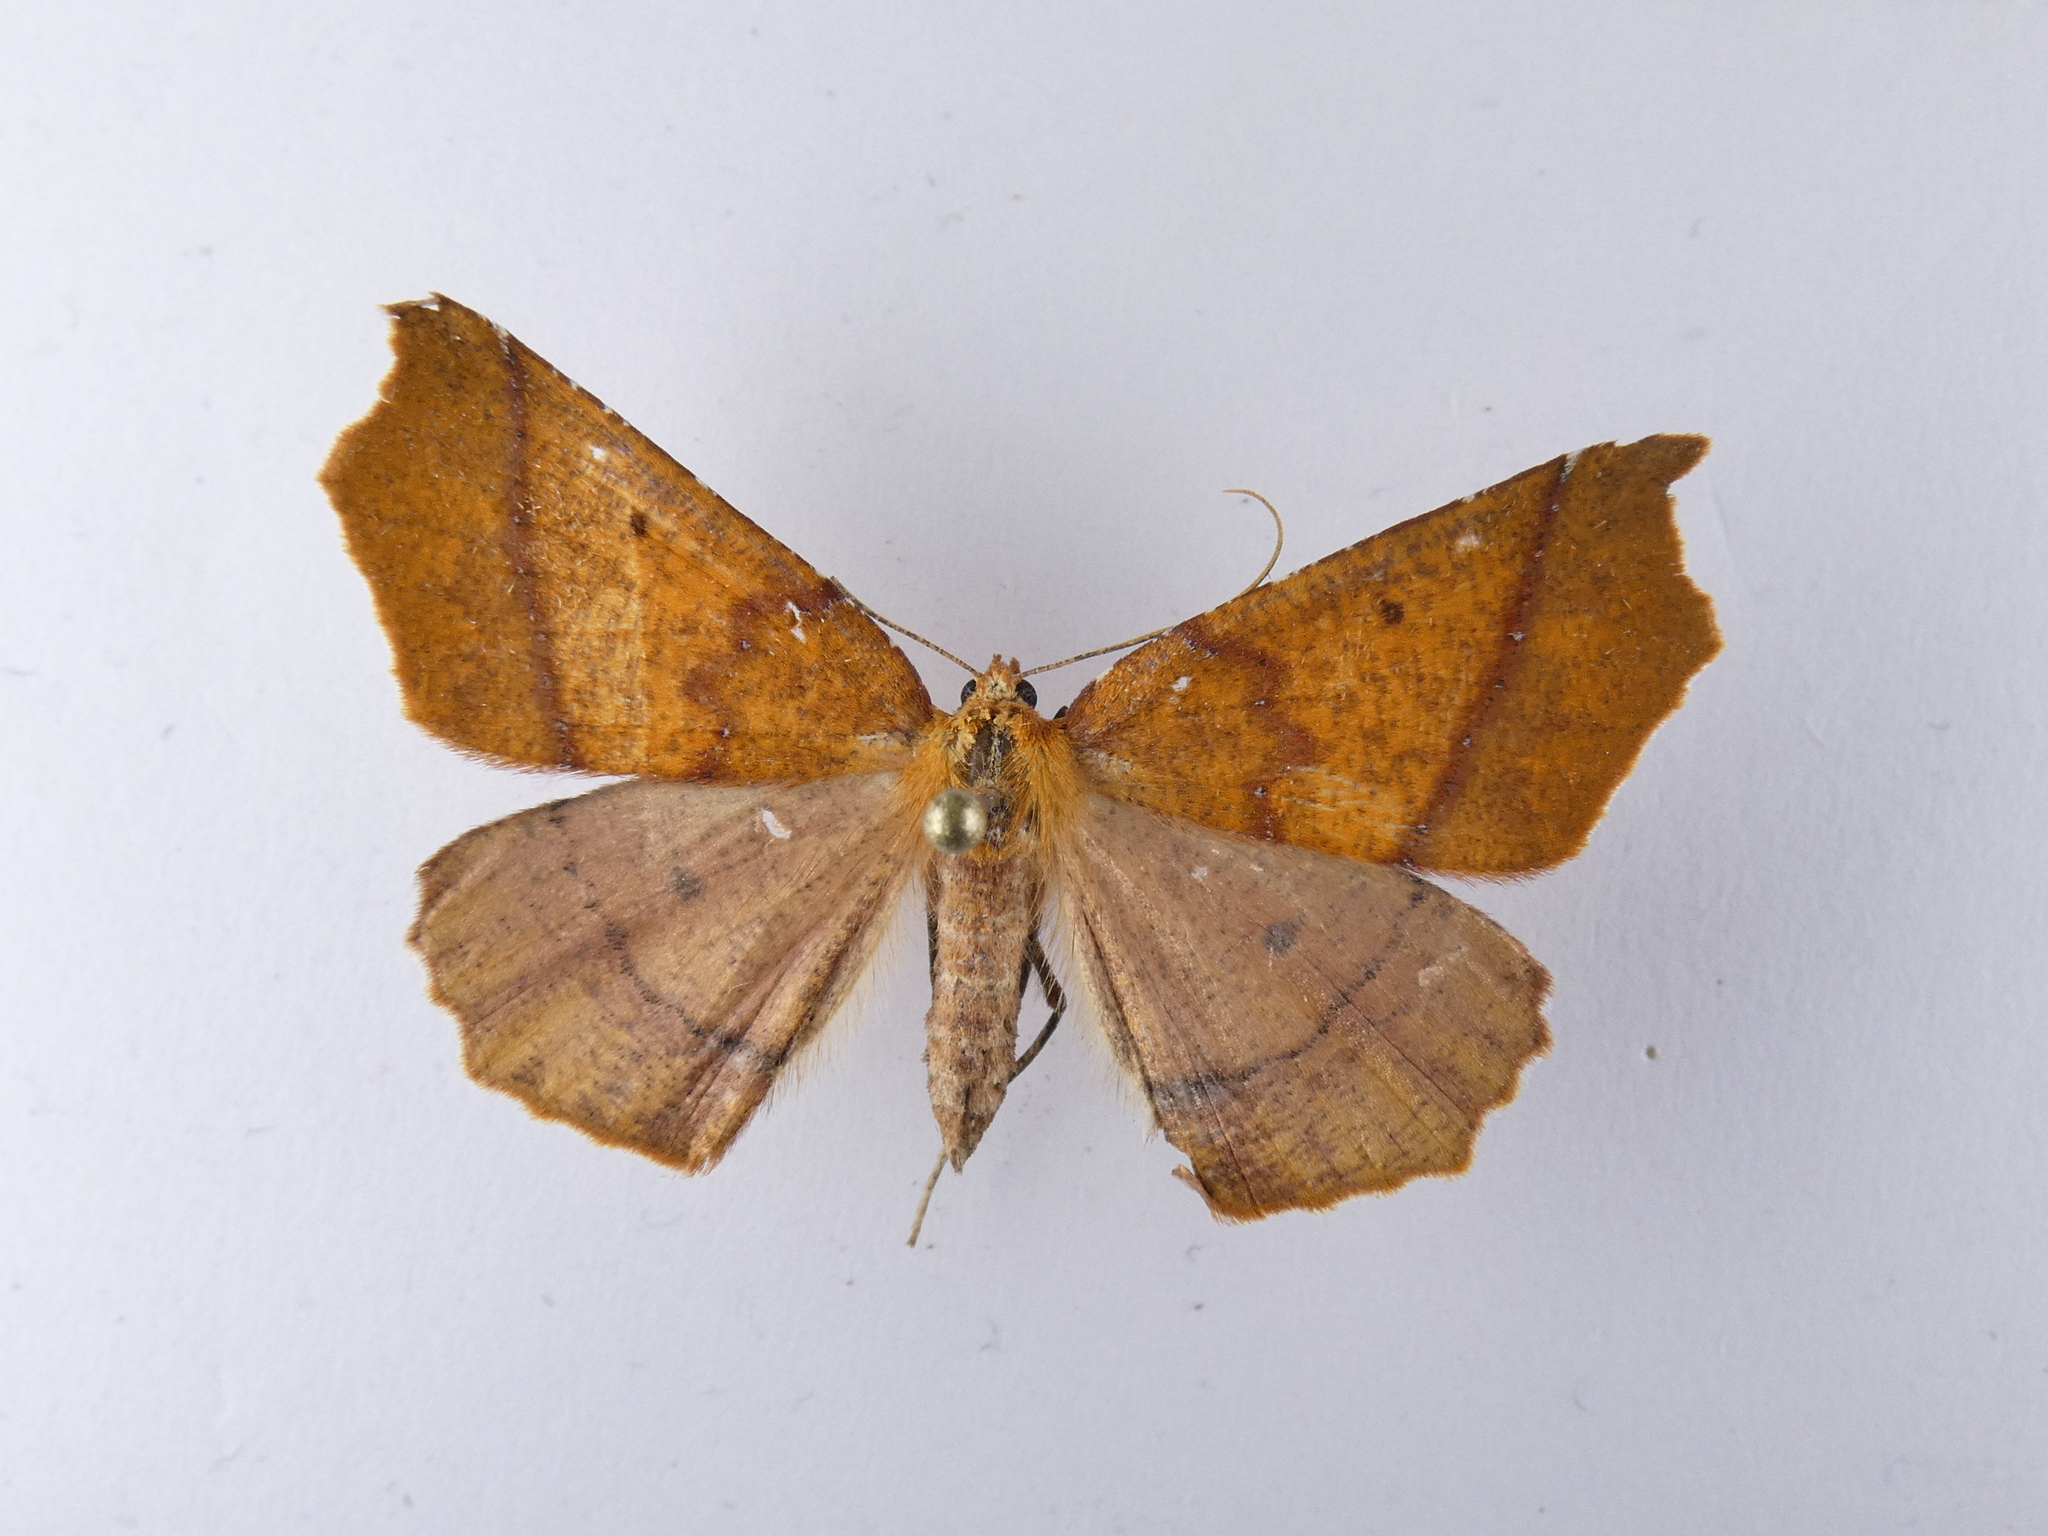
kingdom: Animalia
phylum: Arthropoda
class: Insecta
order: Lepidoptera
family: Geometridae
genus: Ischalis
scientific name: Ischalis nelsonaria
